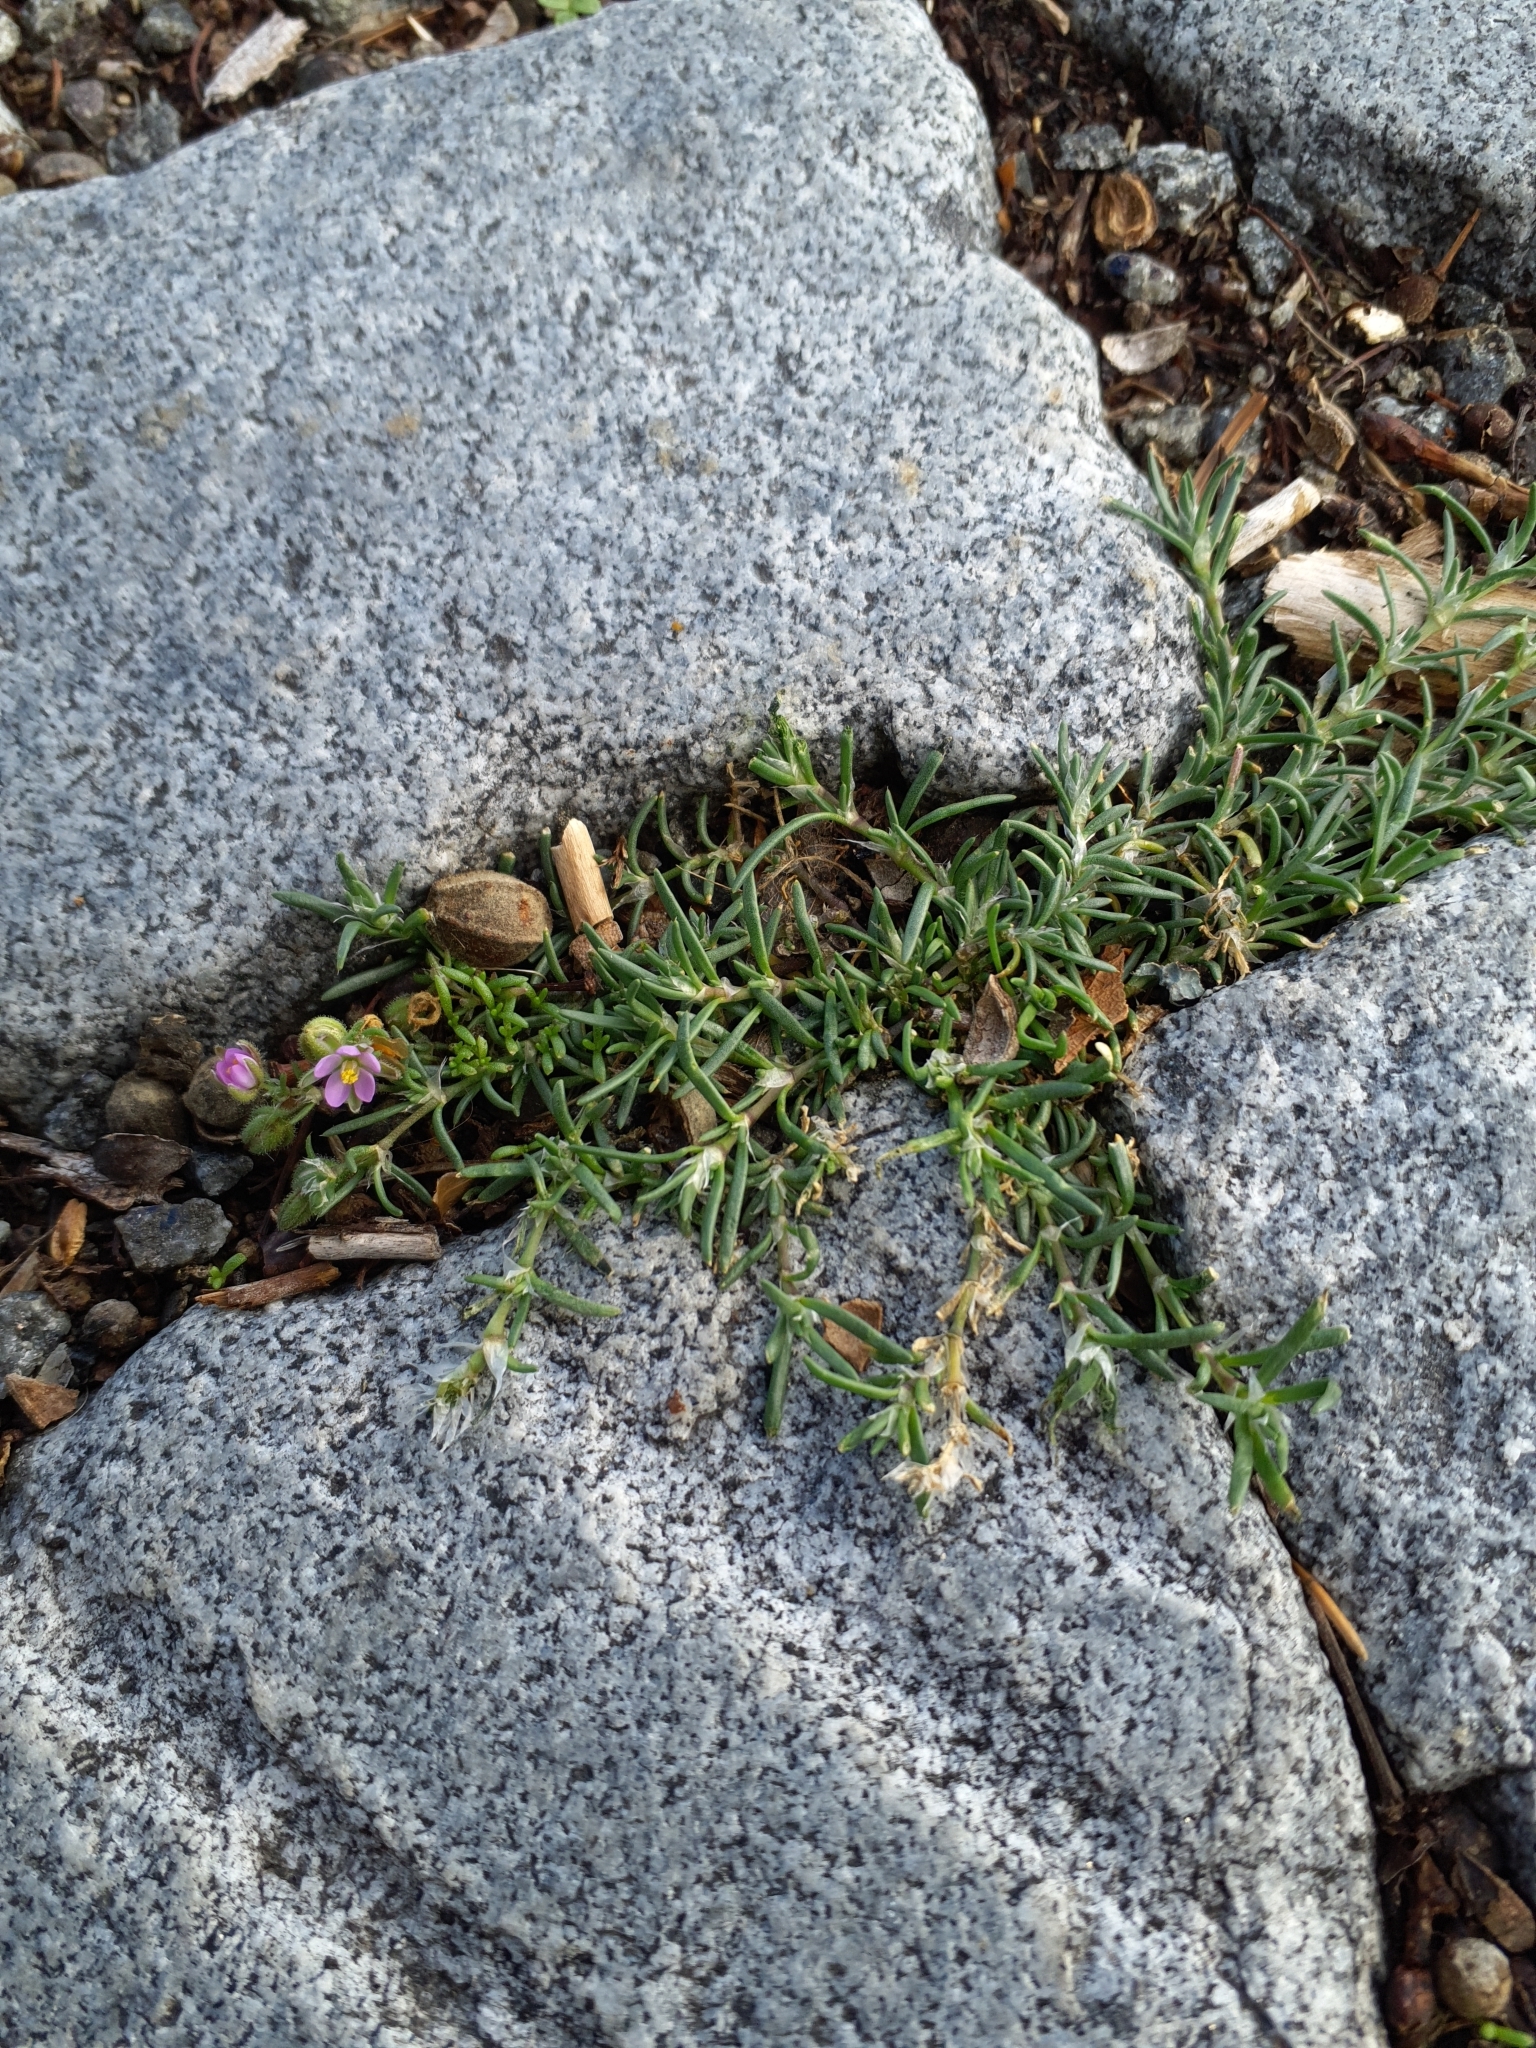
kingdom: Plantae
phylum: Tracheophyta
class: Magnoliopsida
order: Caryophyllales
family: Caryophyllaceae
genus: Spergularia
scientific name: Spergularia rubra
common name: Red sand-spurrey
